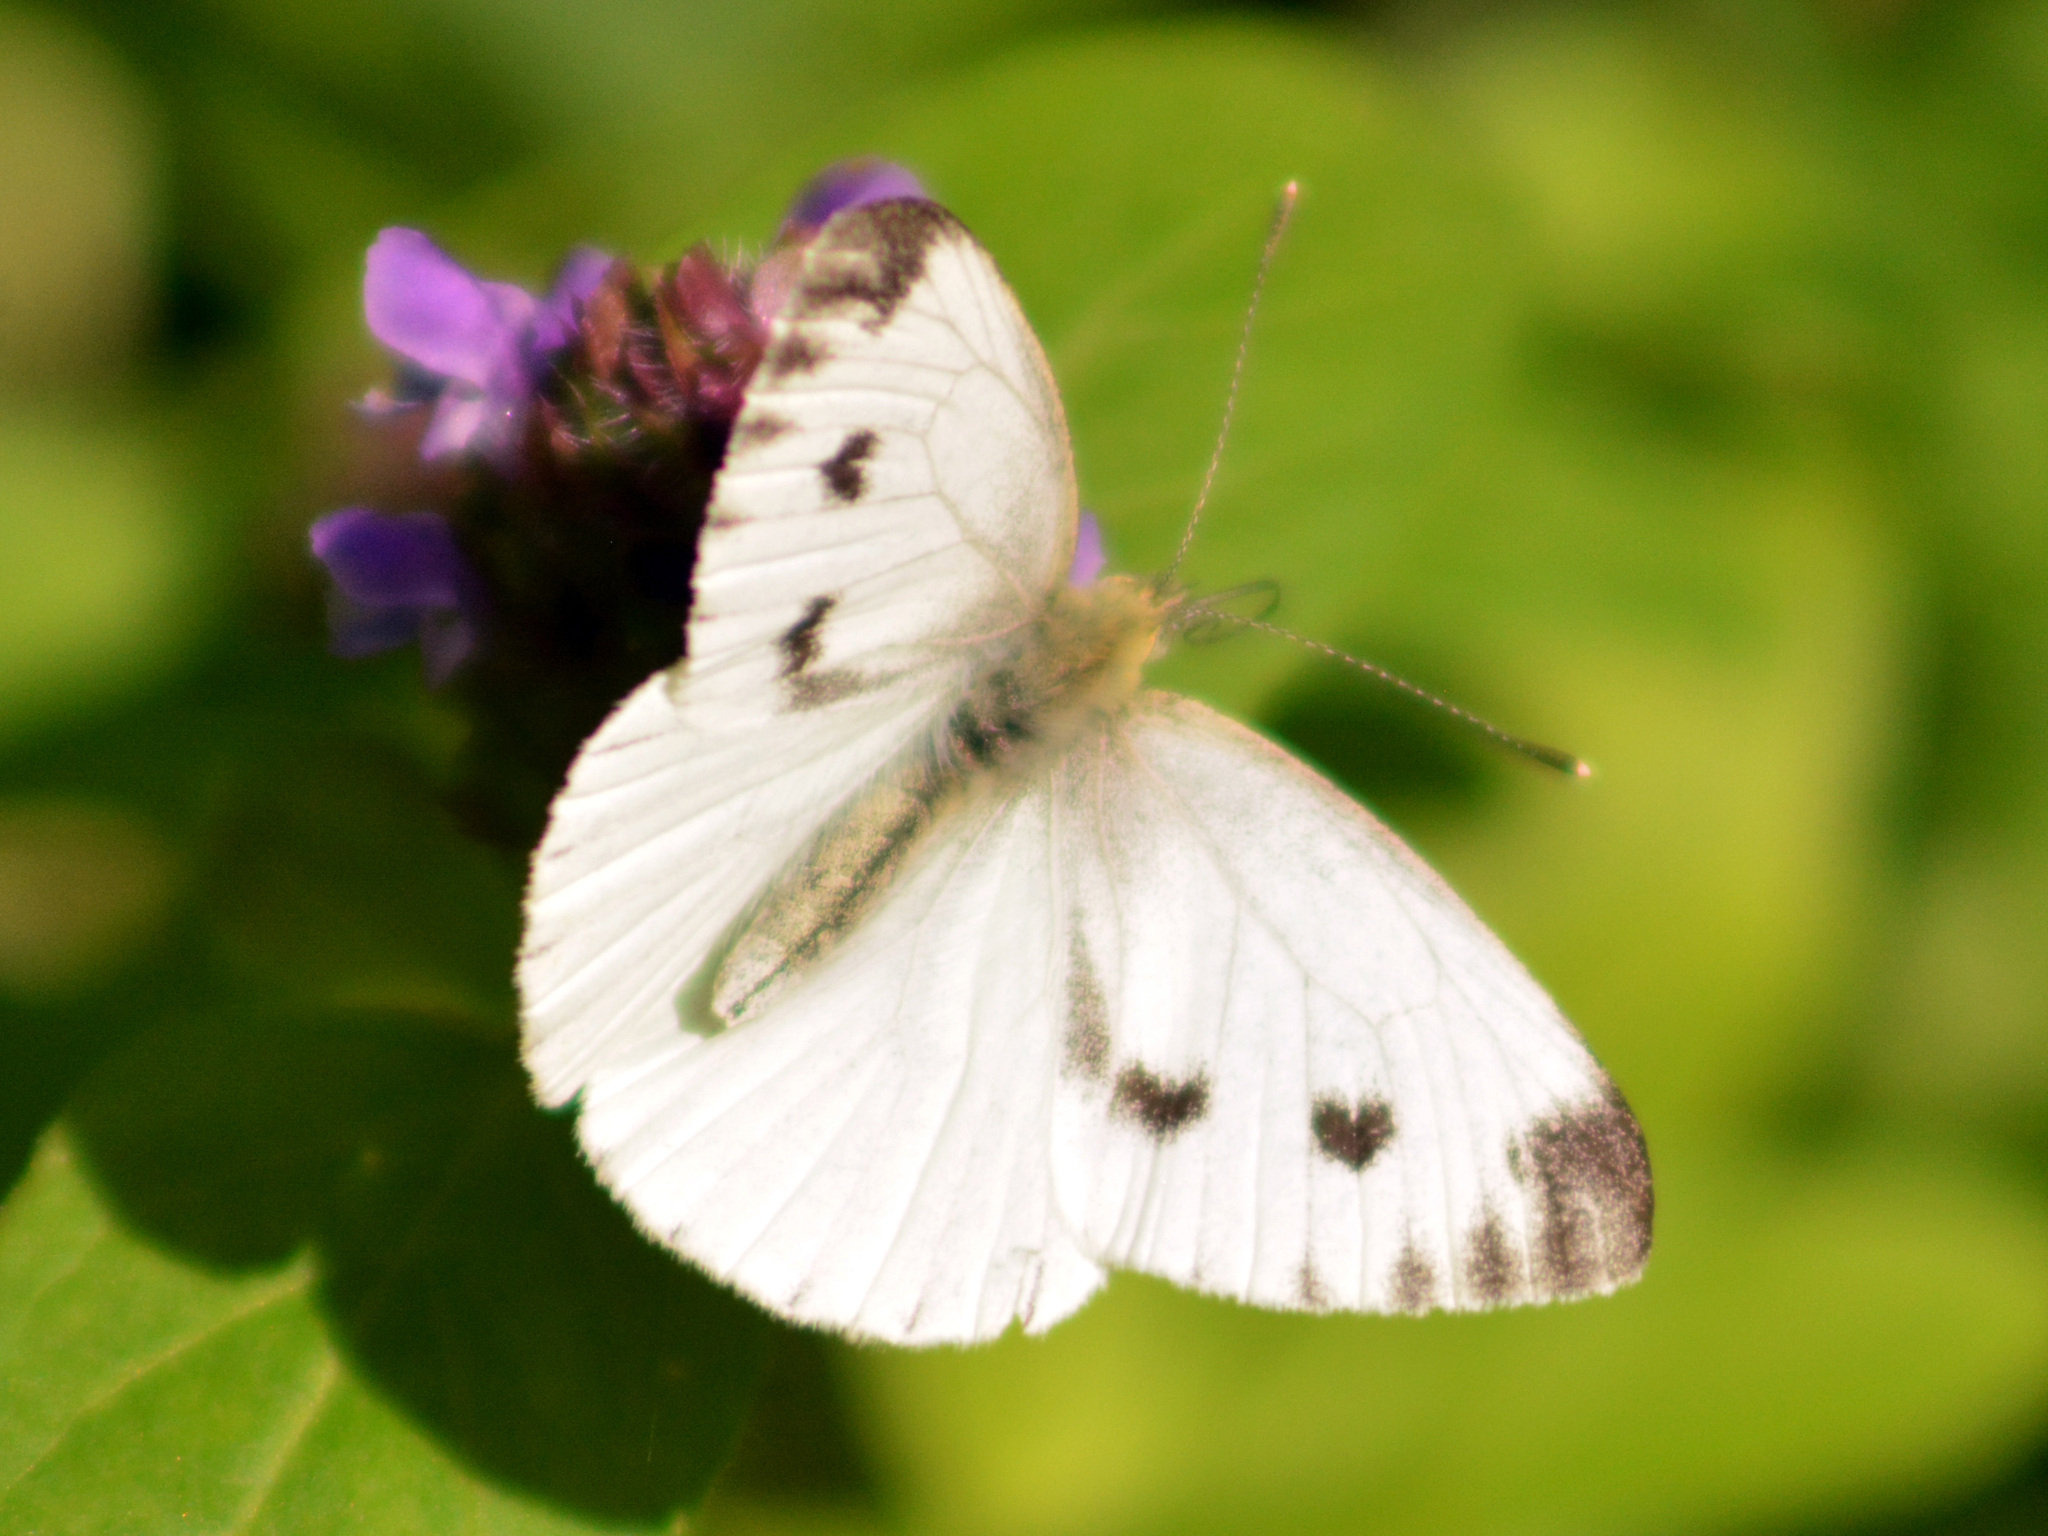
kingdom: Animalia
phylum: Arthropoda
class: Insecta
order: Lepidoptera
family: Pieridae
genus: Pieris
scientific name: Pieris napi
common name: Green-veined white
